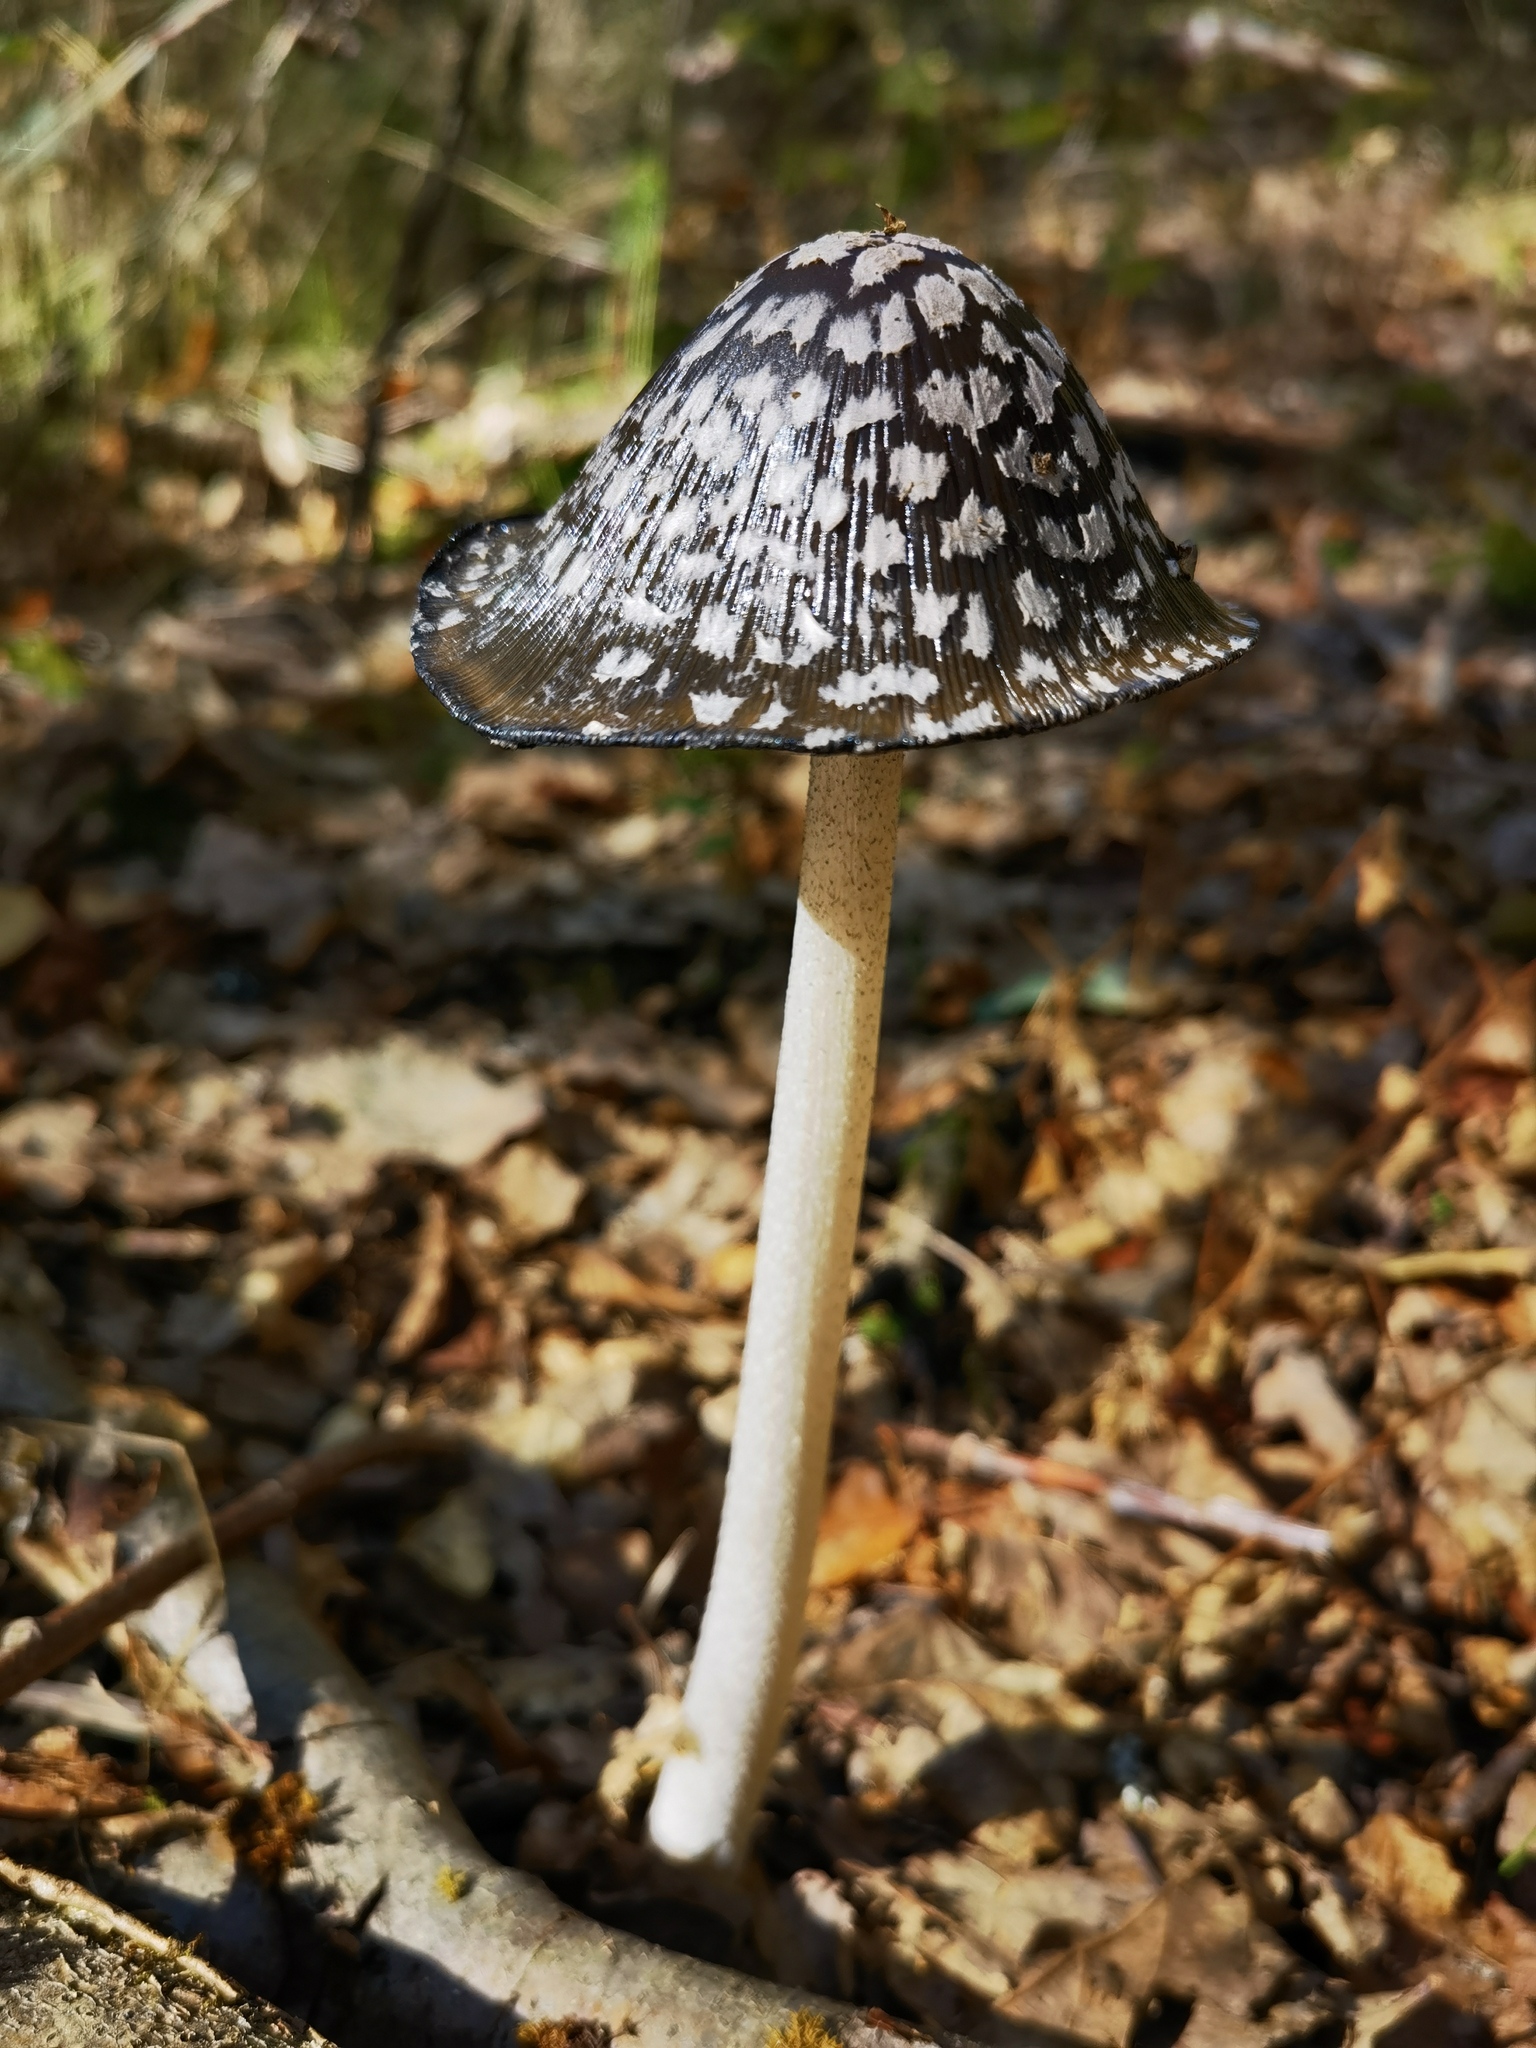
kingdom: Fungi
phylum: Basidiomycota
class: Agaricomycetes
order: Agaricales
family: Psathyrellaceae
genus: Coprinopsis
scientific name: Coprinopsis picacea
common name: Magpie inkcap
